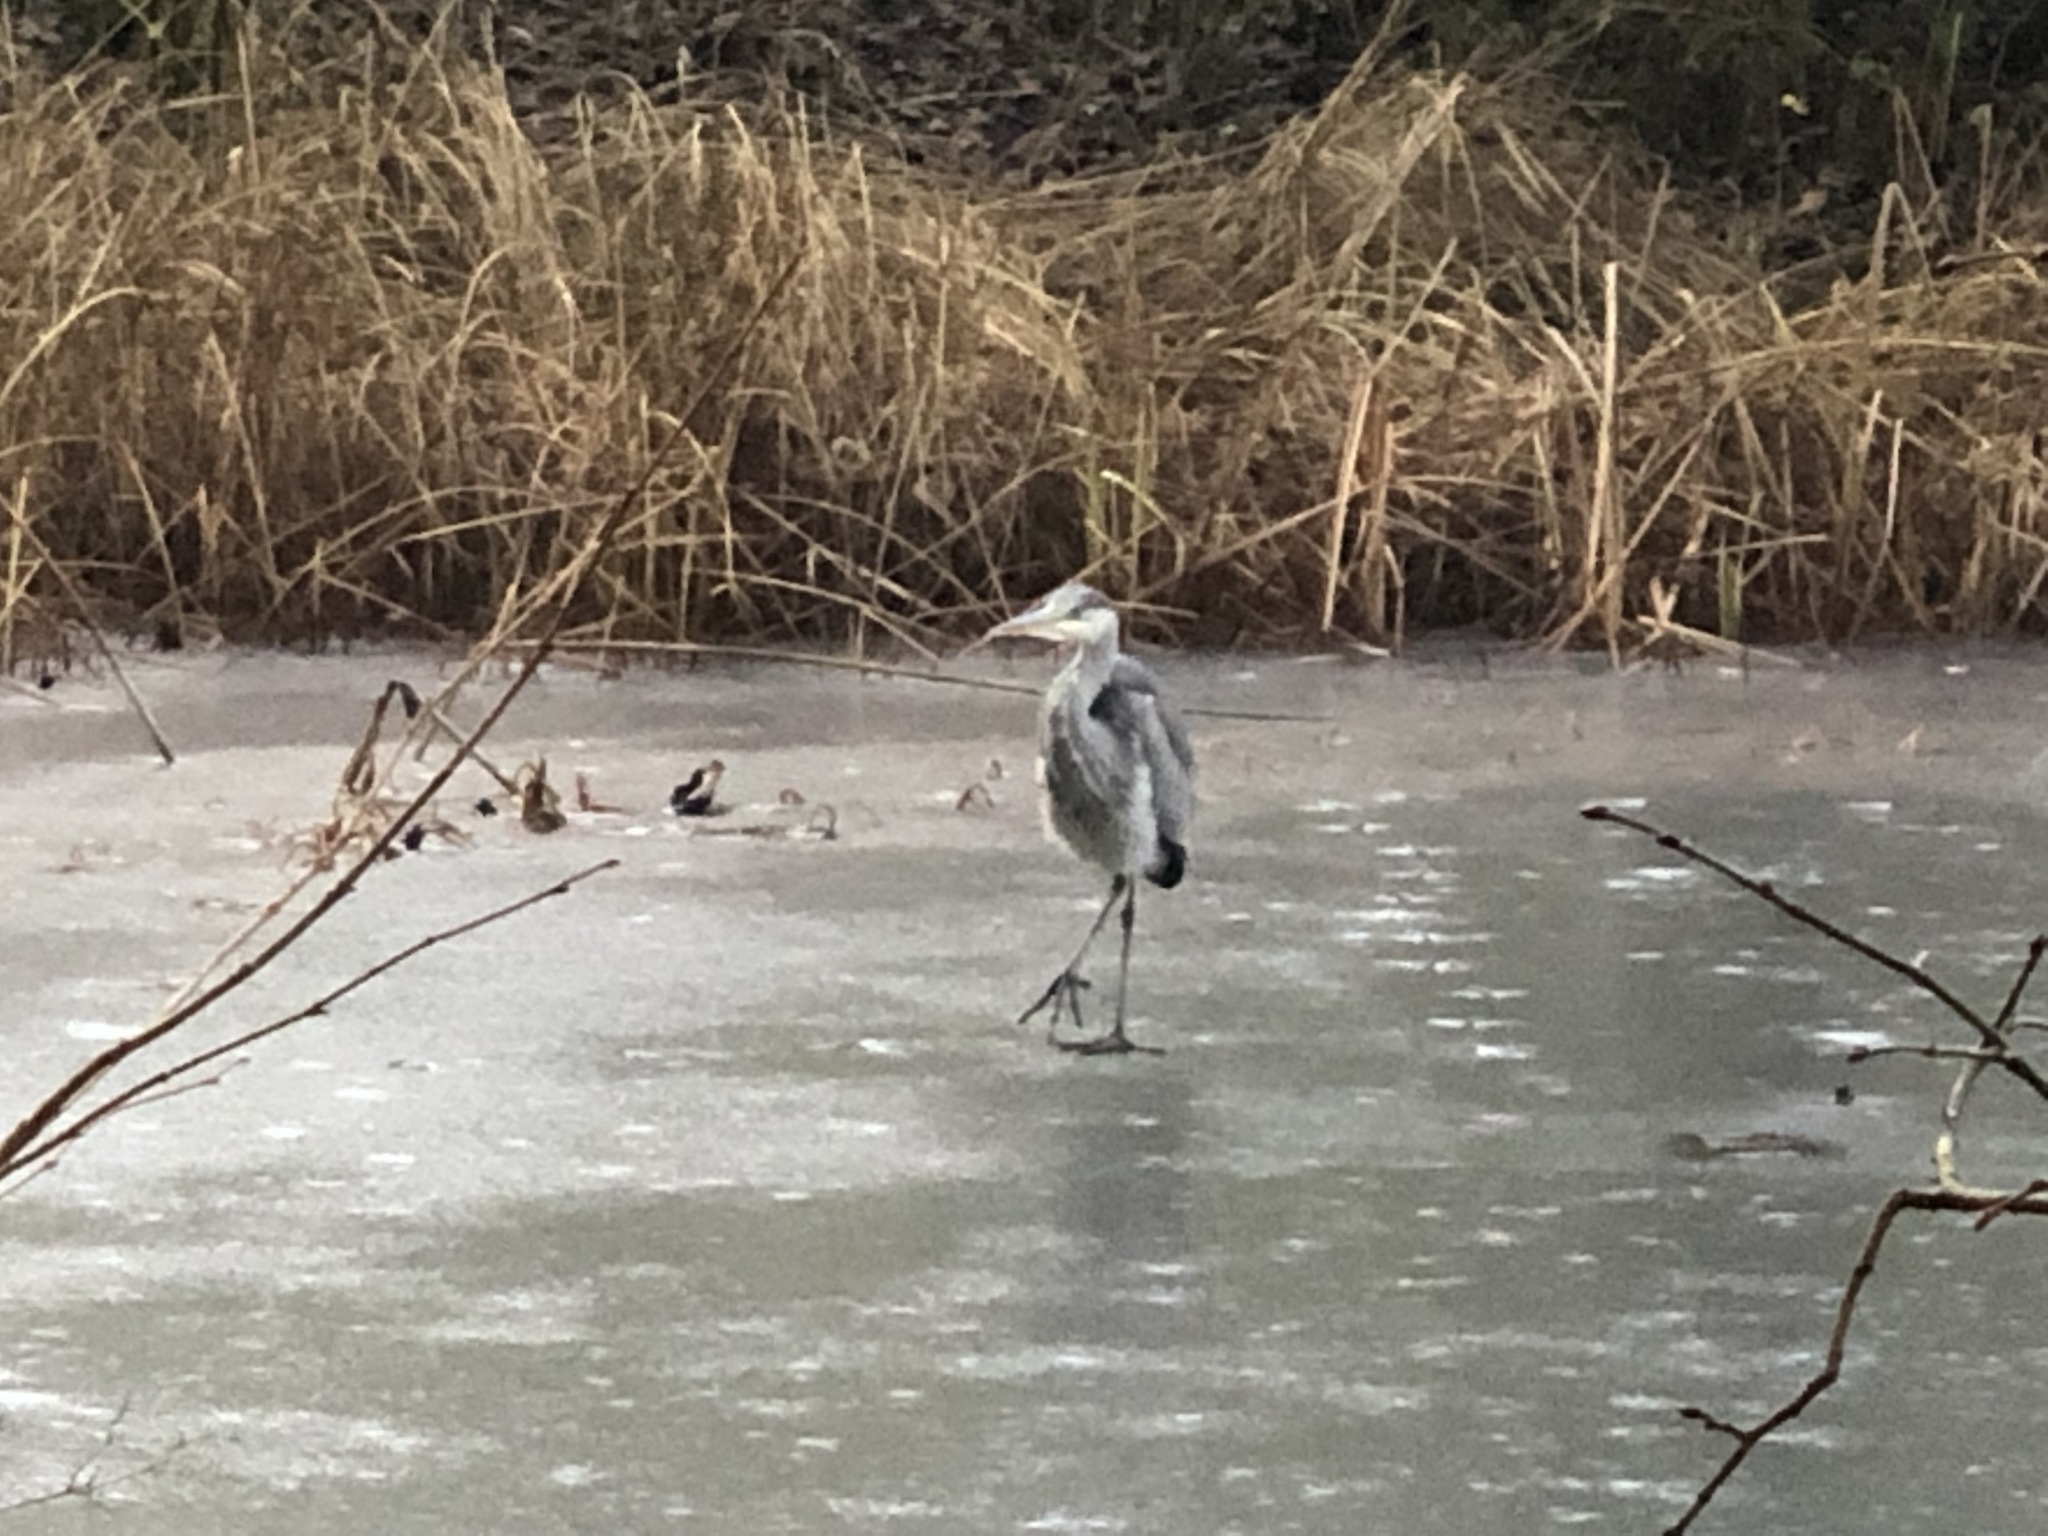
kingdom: Animalia
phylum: Chordata
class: Aves
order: Pelecaniformes
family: Ardeidae
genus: Ardea
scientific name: Ardea cinerea
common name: Grey heron
